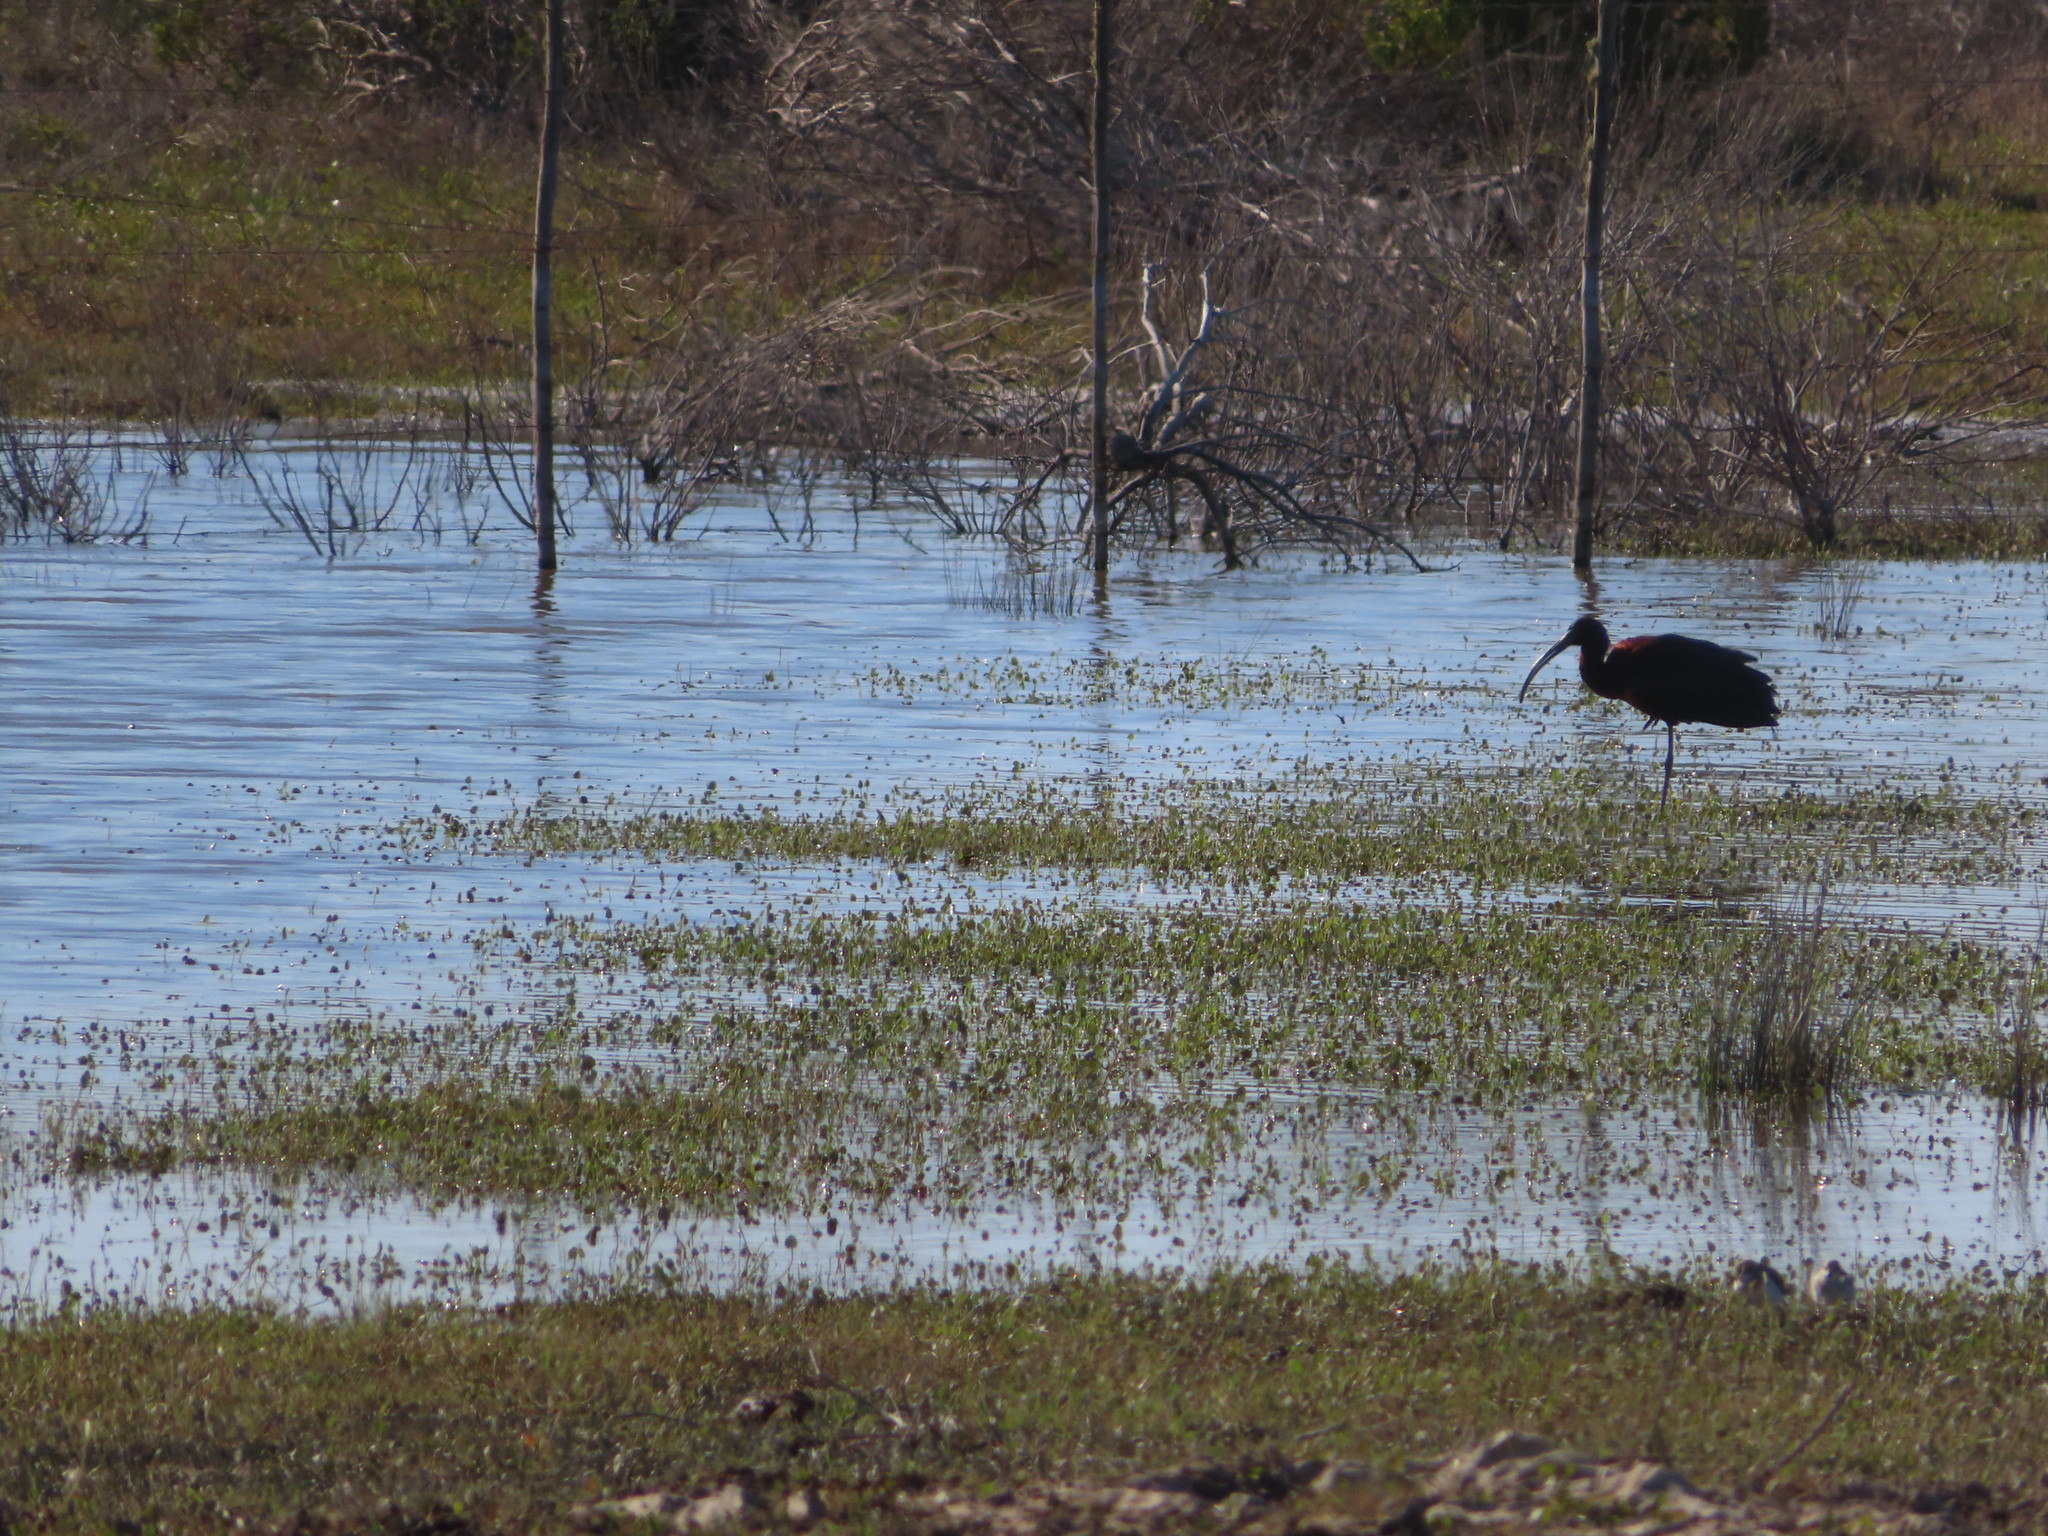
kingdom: Animalia
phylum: Chordata
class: Aves
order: Pelecaniformes
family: Threskiornithidae
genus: Plegadis
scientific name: Plegadis falcinellus
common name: Glossy ibis
